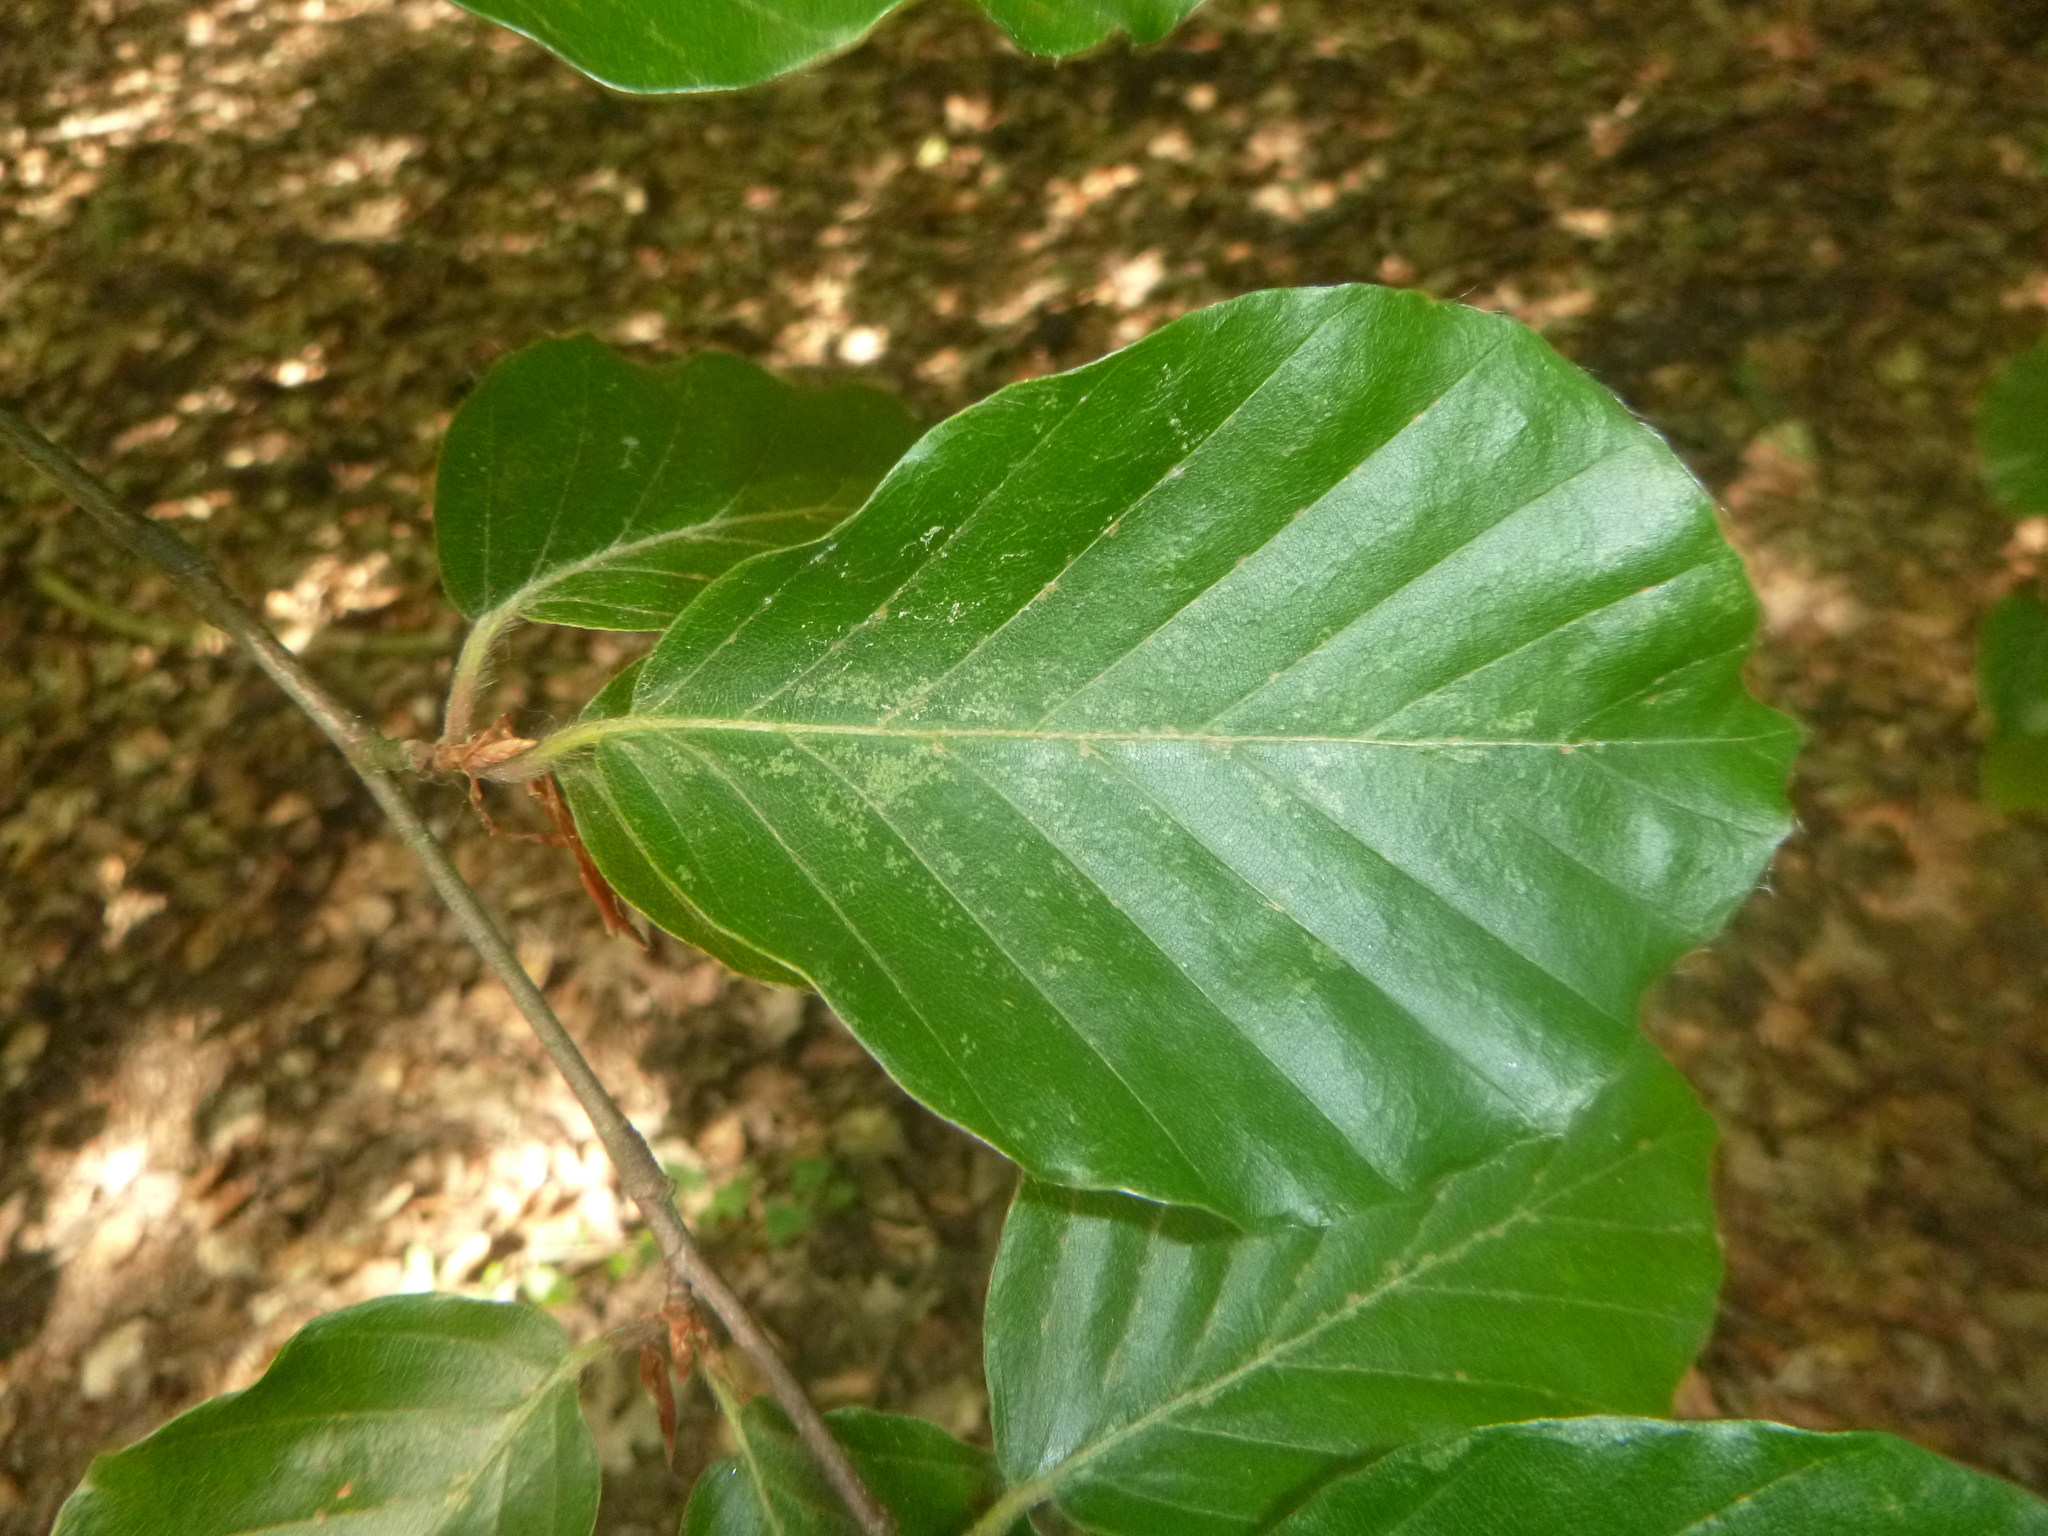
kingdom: Plantae
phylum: Tracheophyta
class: Magnoliopsida
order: Fagales
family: Fagaceae
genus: Fagus
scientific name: Fagus sylvatica
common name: Beech
